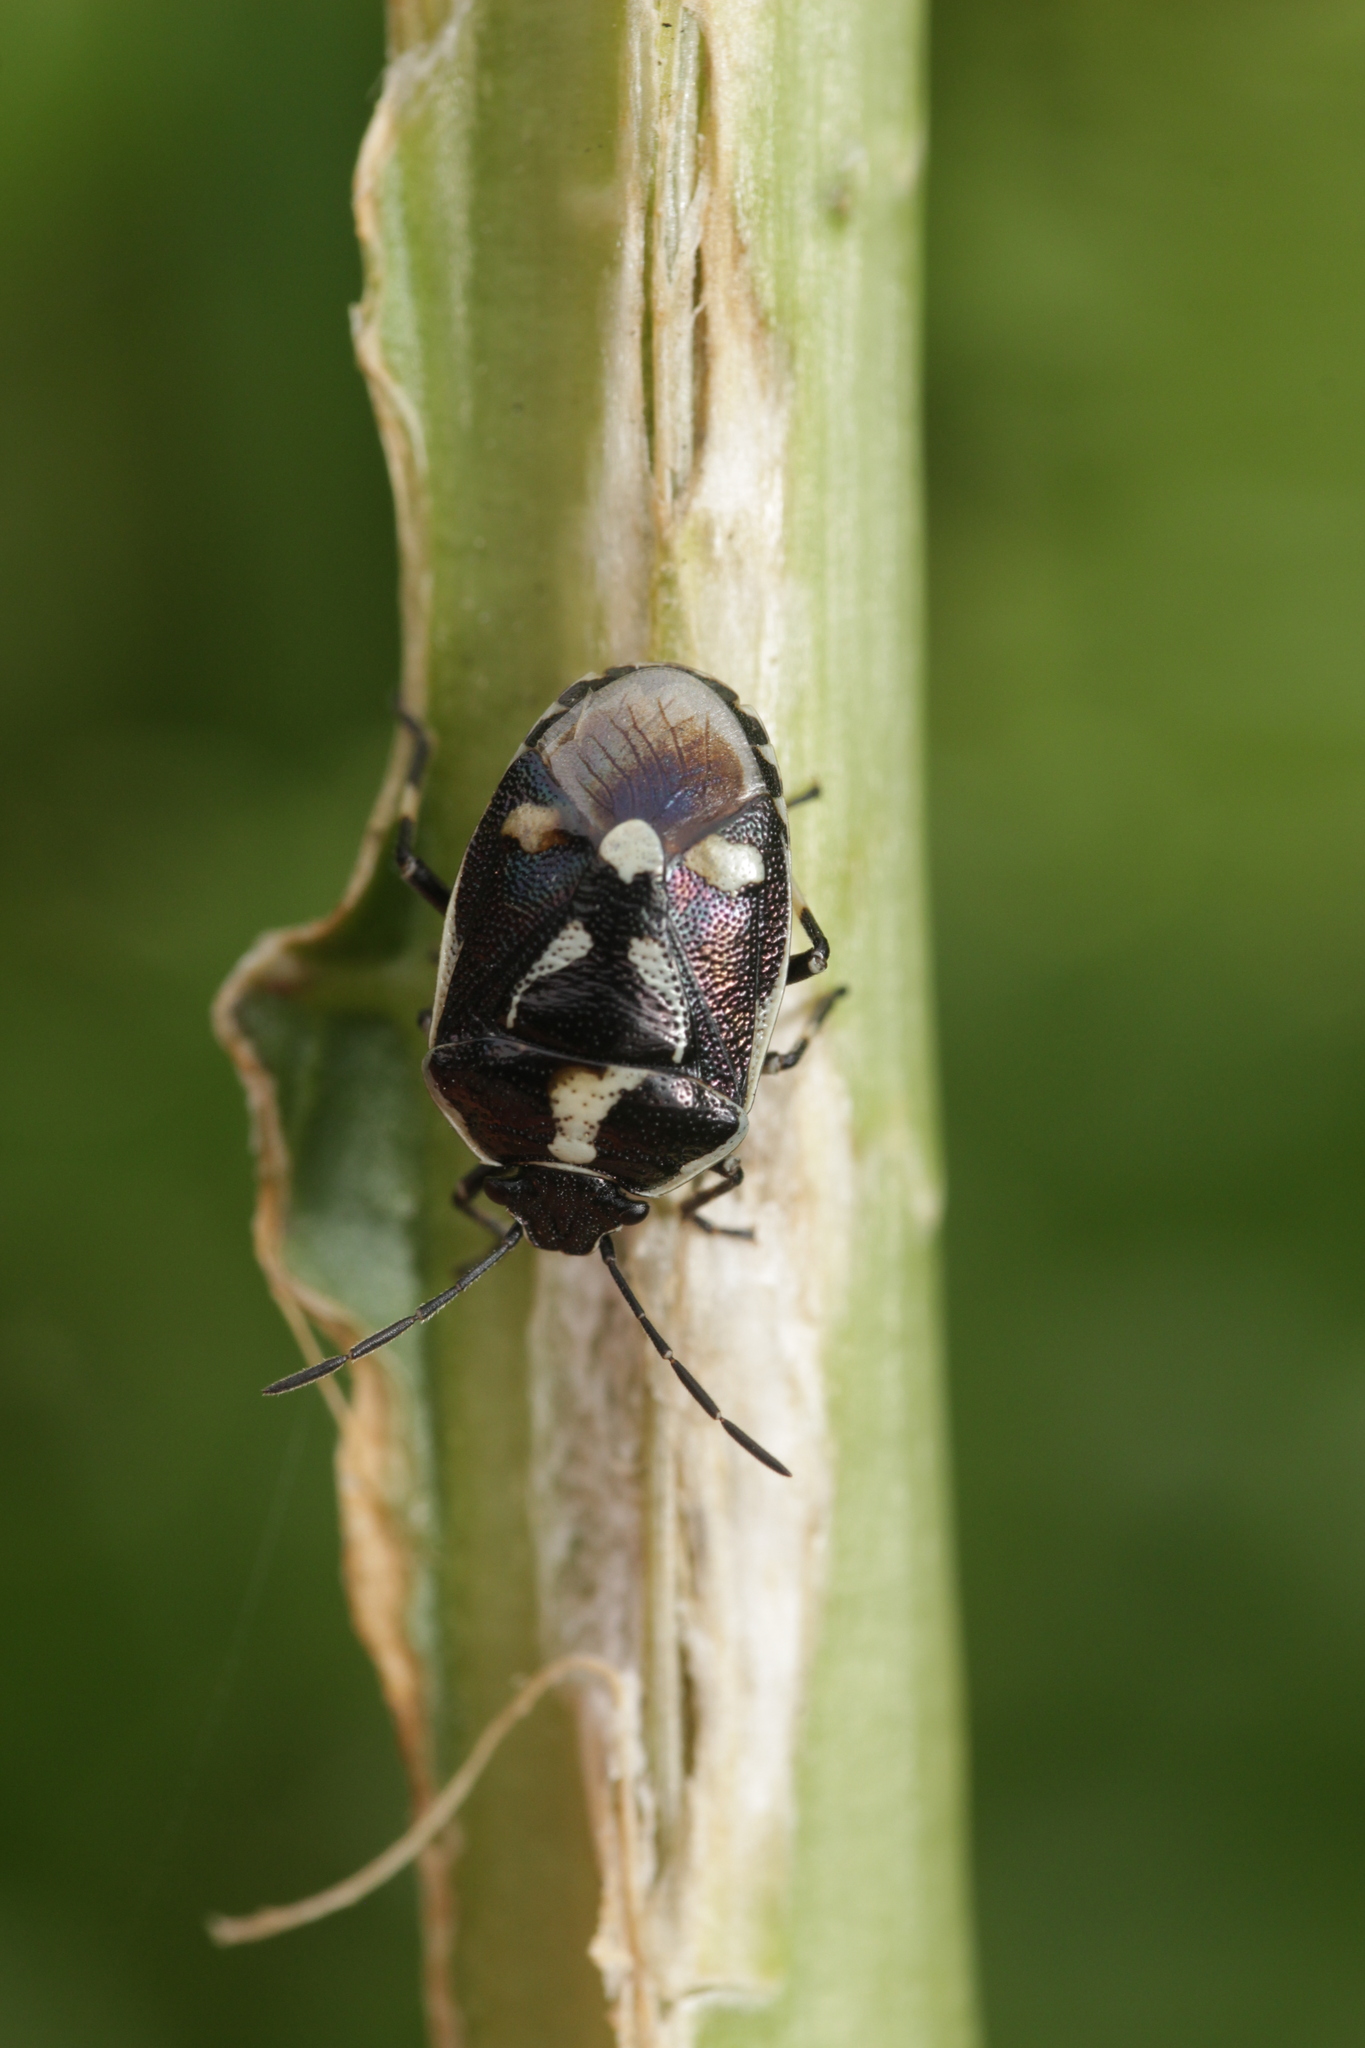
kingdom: Animalia
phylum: Arthropoda
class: Insecta
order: Hemiptera
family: Pentatomidae
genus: Eurydema
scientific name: Eurydema oleracea
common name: Cabbage bug
